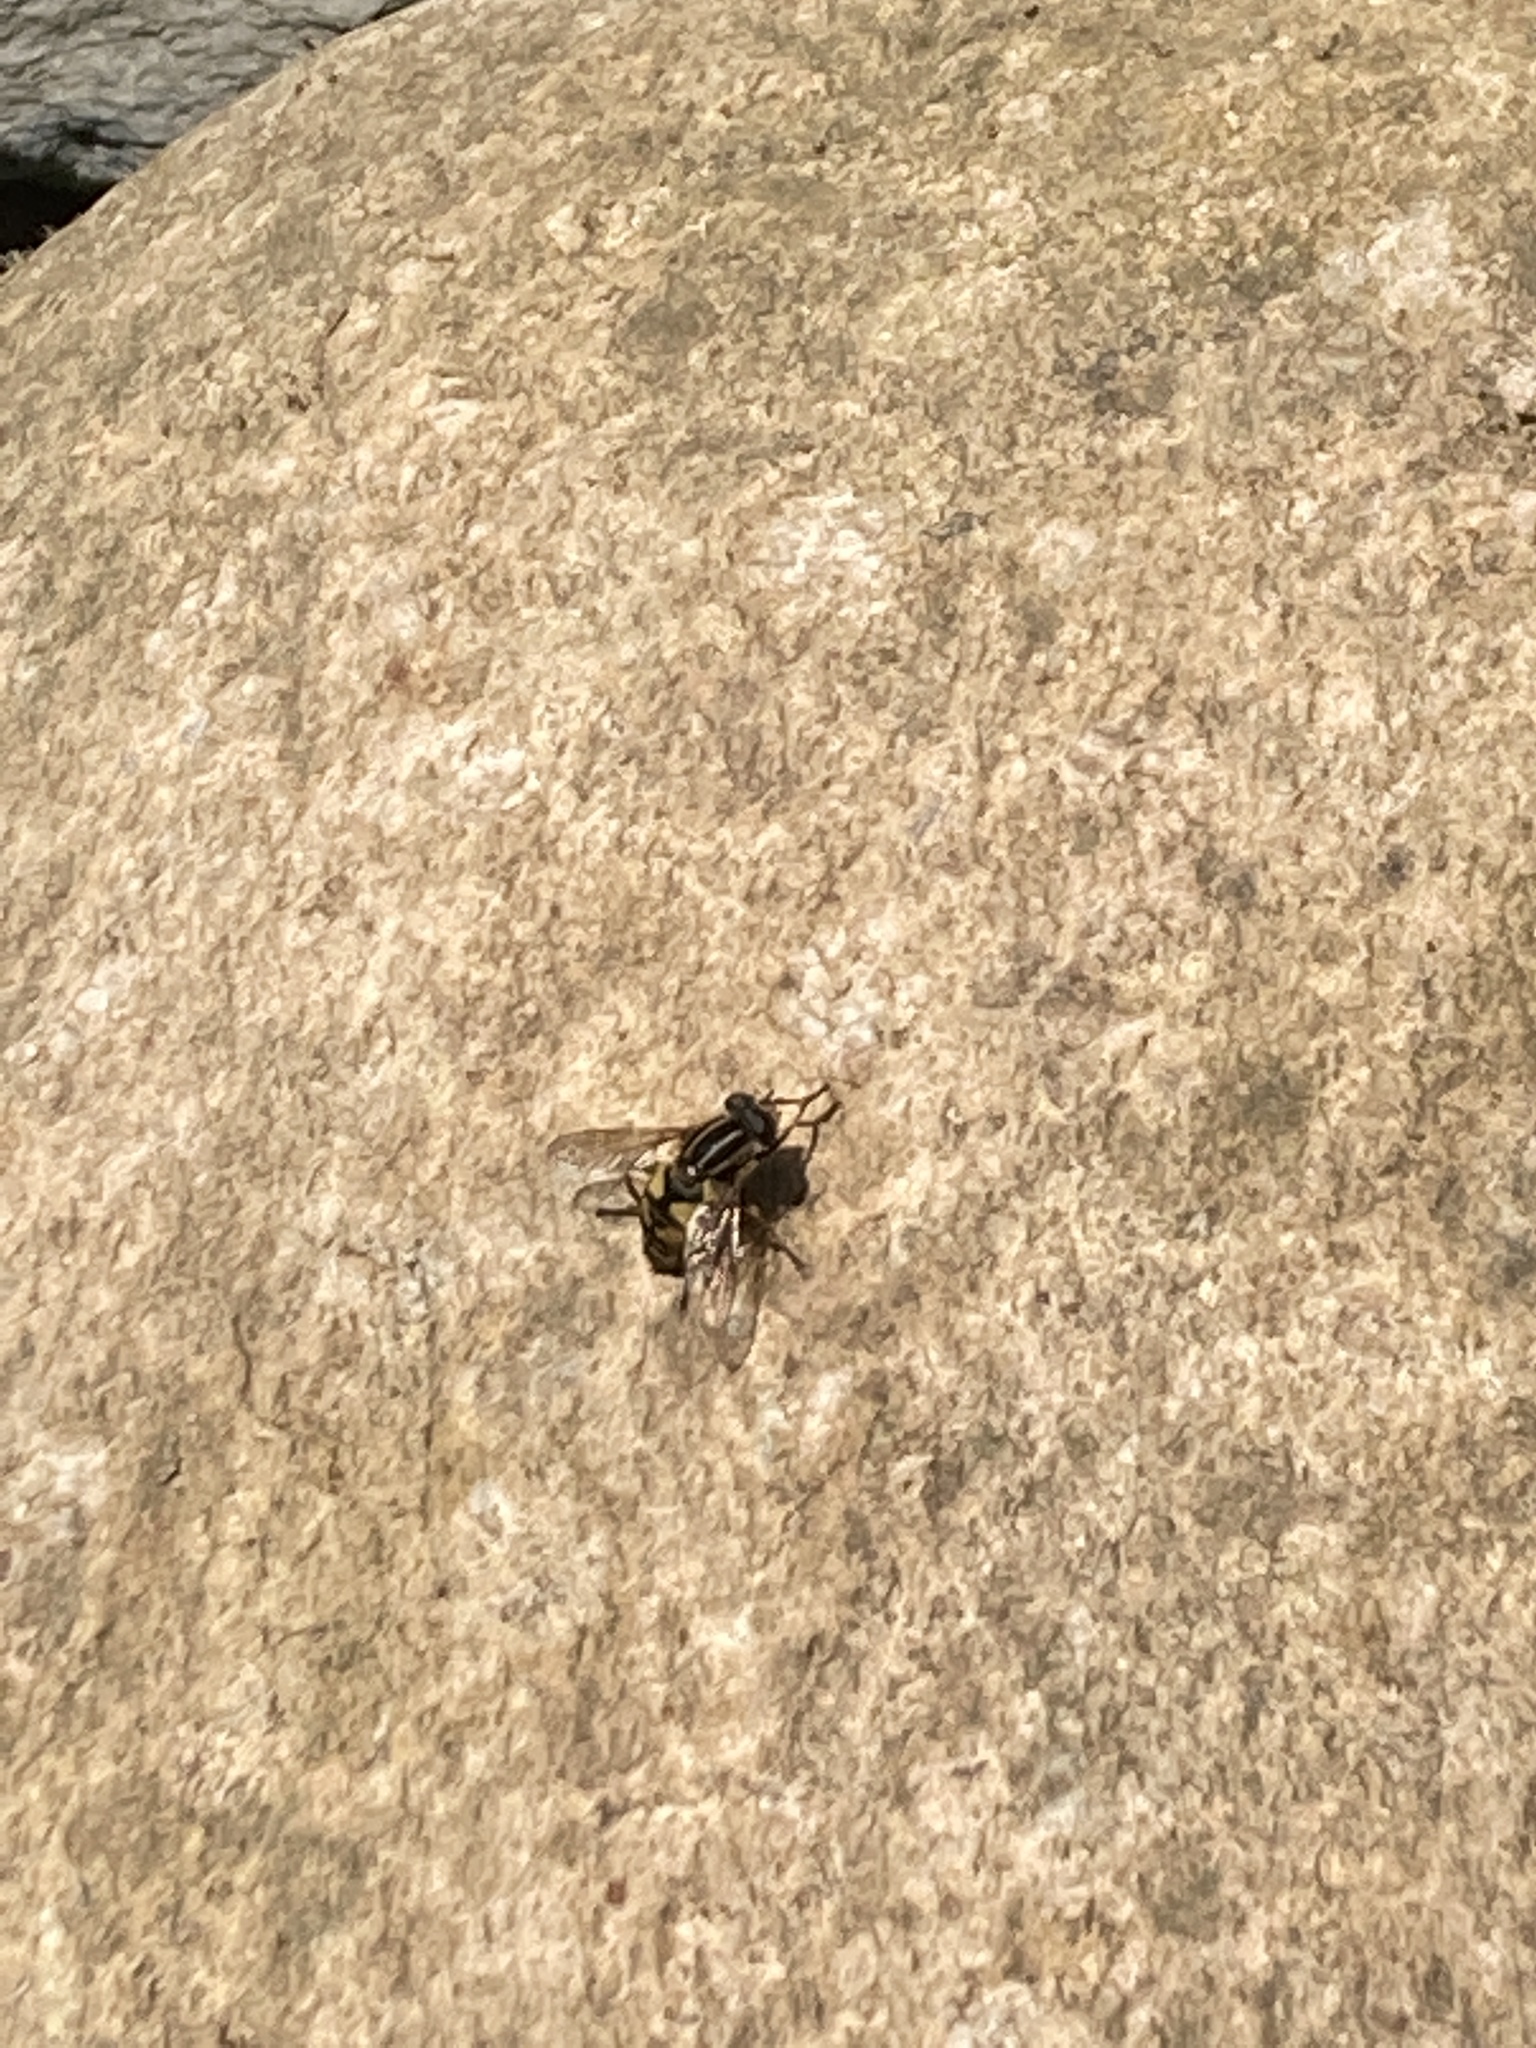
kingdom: Animalia
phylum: Arthropoda
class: Insecta
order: Diptera
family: Syrphidae
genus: Helophilus
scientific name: Helophilus pendulus
